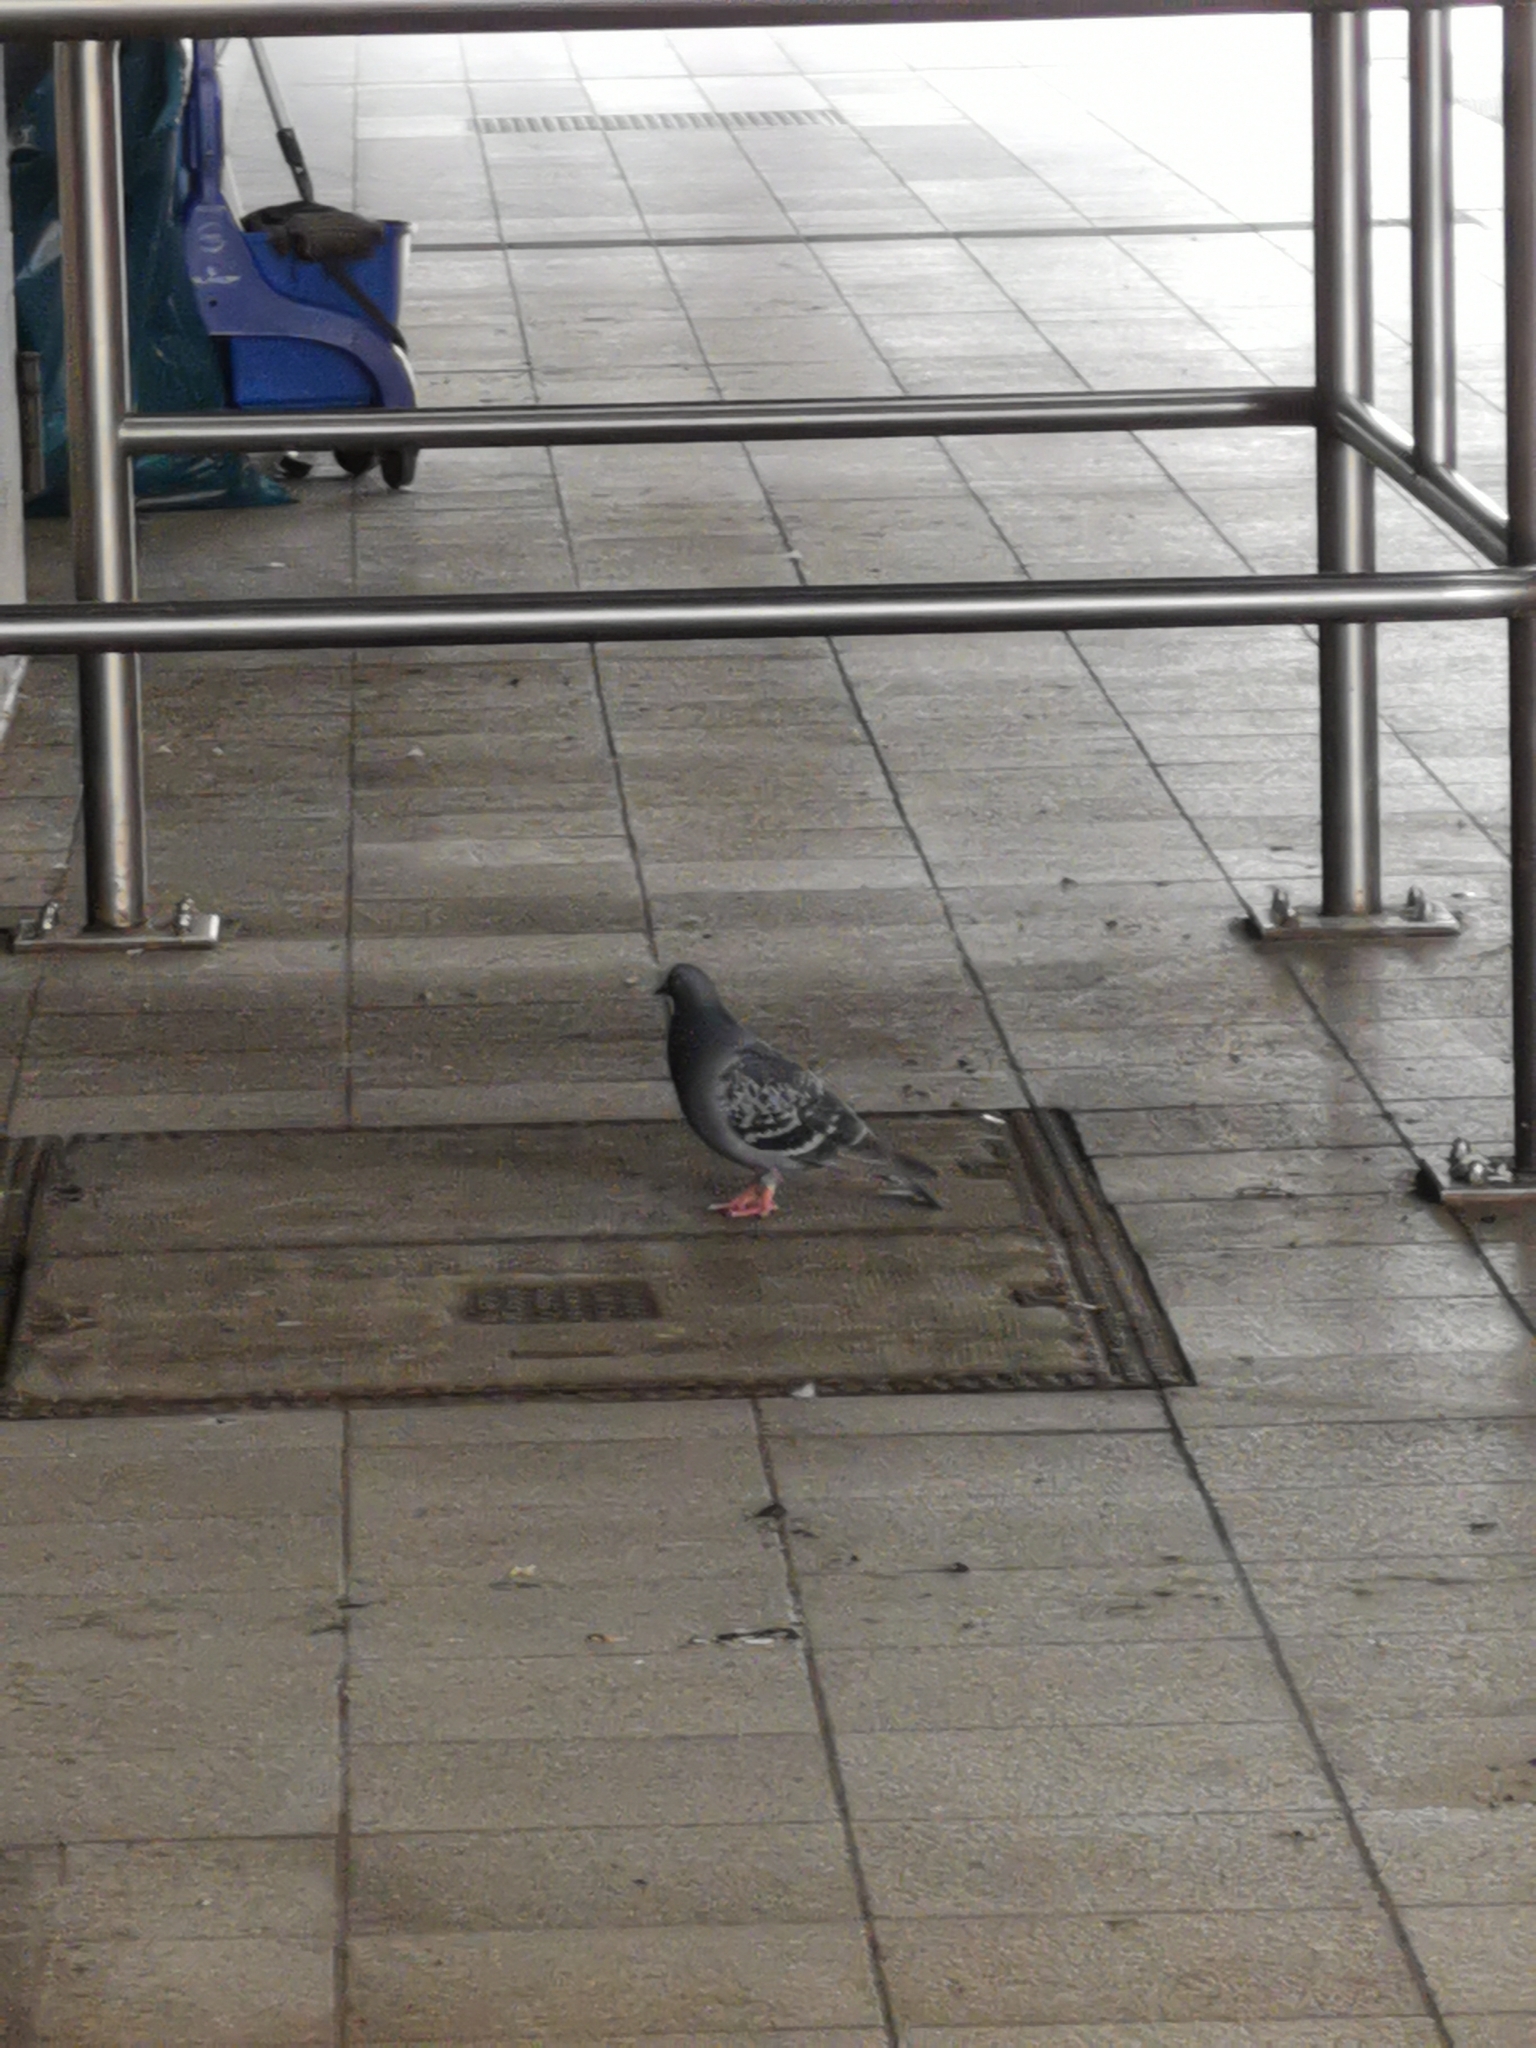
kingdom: Animalia
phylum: Chordata
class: Aves
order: Columbiformes
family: Columbidae
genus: Columba
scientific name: Columba livia
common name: Rock pigeon
